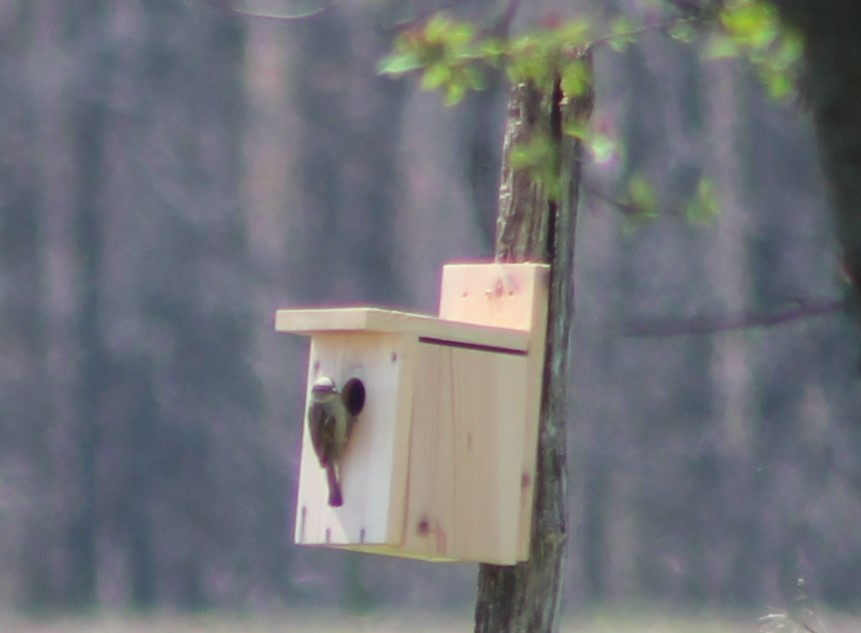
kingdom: Animalia
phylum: Chordata
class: Aves
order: Passeriformes
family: Passeridae
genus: Passer
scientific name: Passer domesticus
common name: House sparrow
